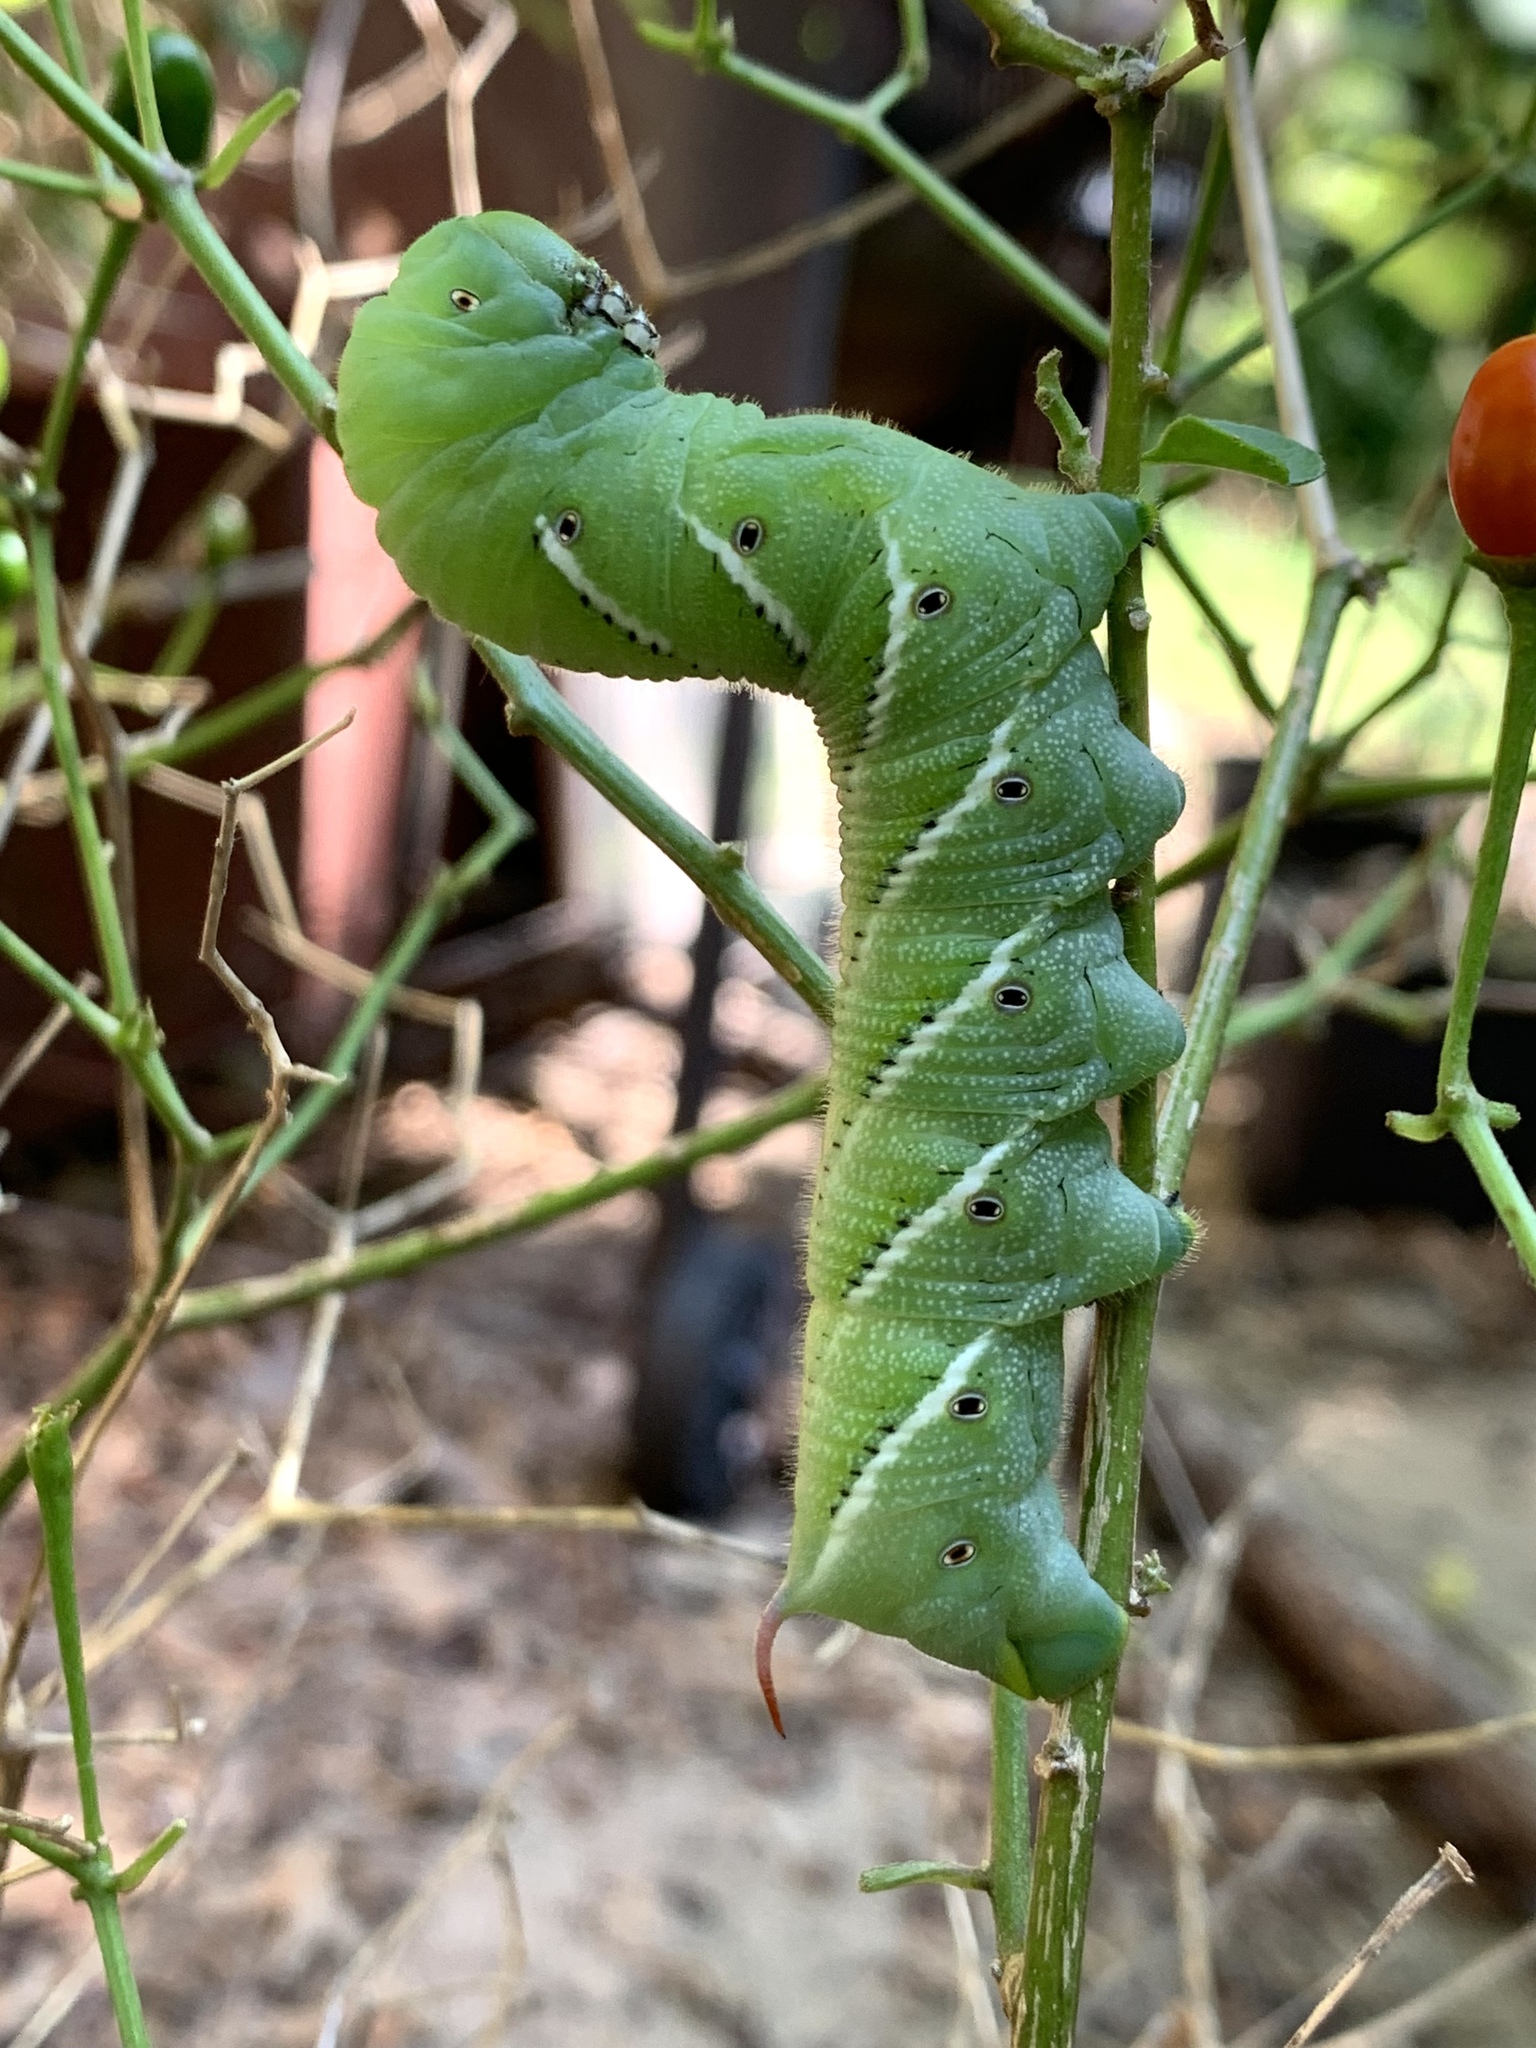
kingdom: Animalia
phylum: Arthropoda
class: Insecta
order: Lepidoptera
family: Sphingidae
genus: Manduca
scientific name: Manduca sexta
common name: Carolina sphinx
